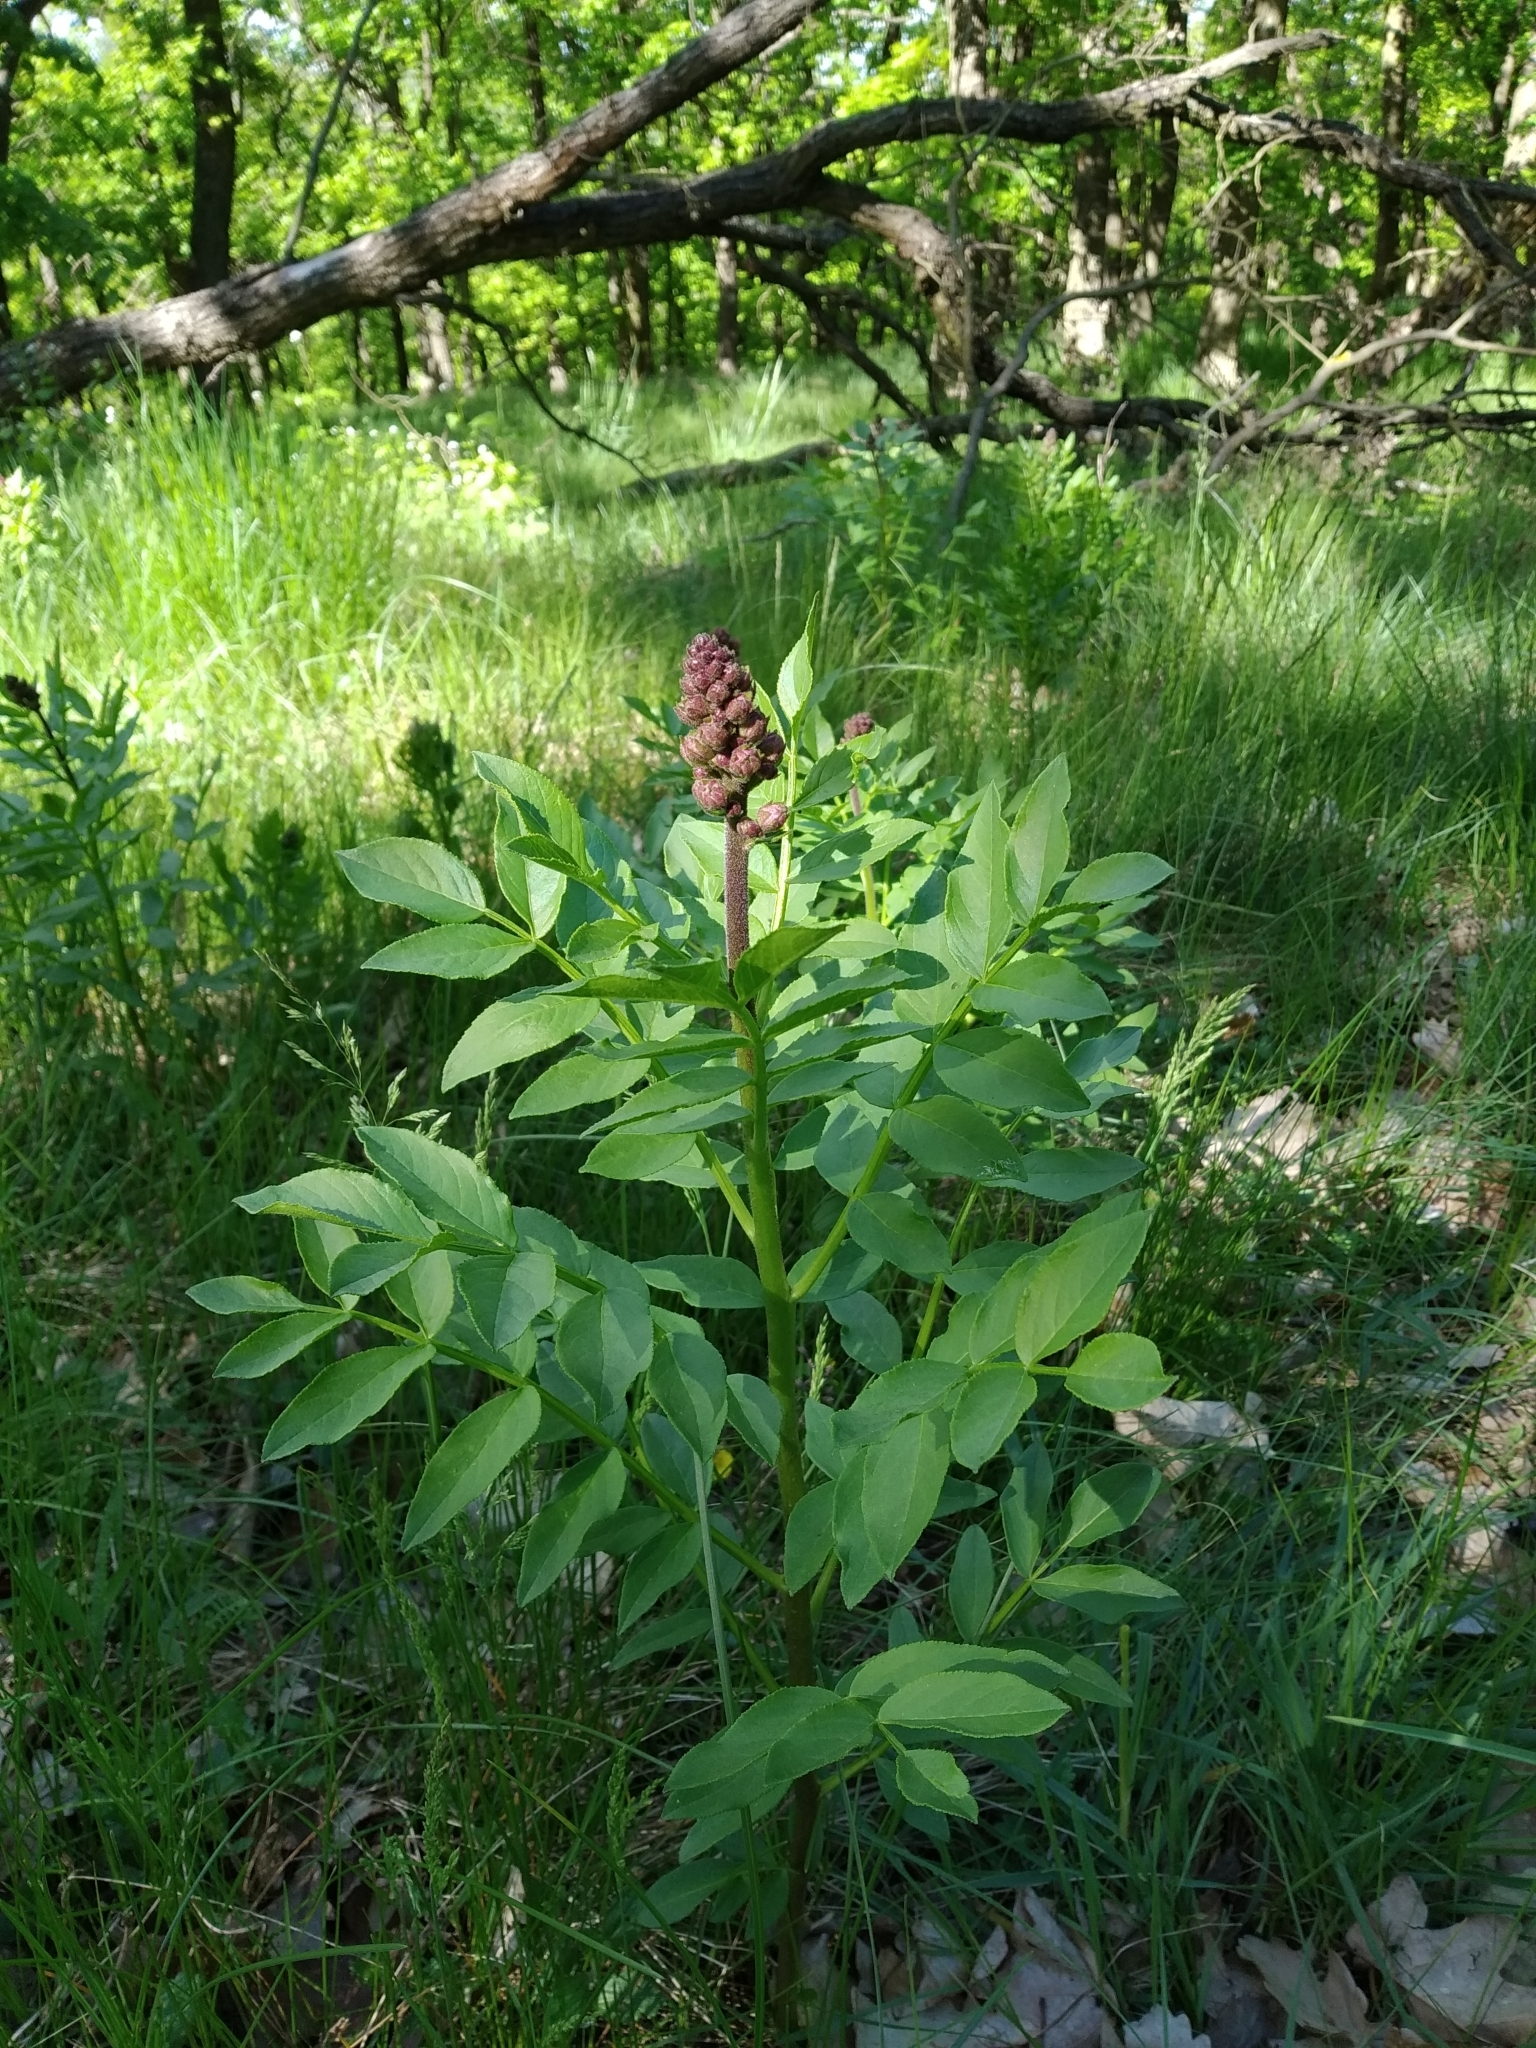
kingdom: Plantae
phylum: Tracheophyta
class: Magnoliopsida
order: Sapindales
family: Rutaceae
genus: Dictamnus
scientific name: Dictamnus albus
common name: Gasplant
